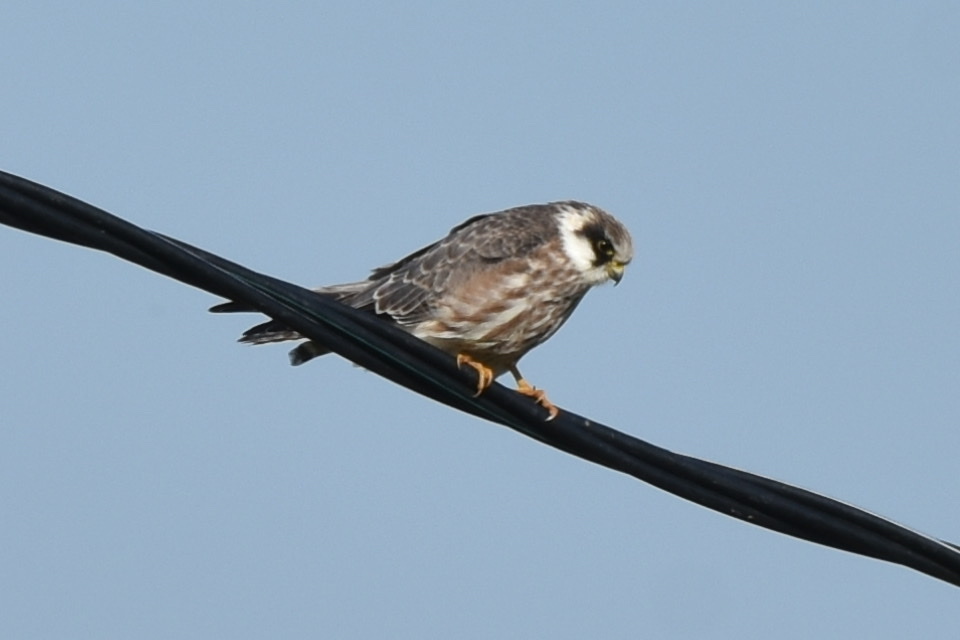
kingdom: Animalia
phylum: Chordata
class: Aves
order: Falconiformes
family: Falconidae
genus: Falco
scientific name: Falco vespertinus
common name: Red-footed falcon
